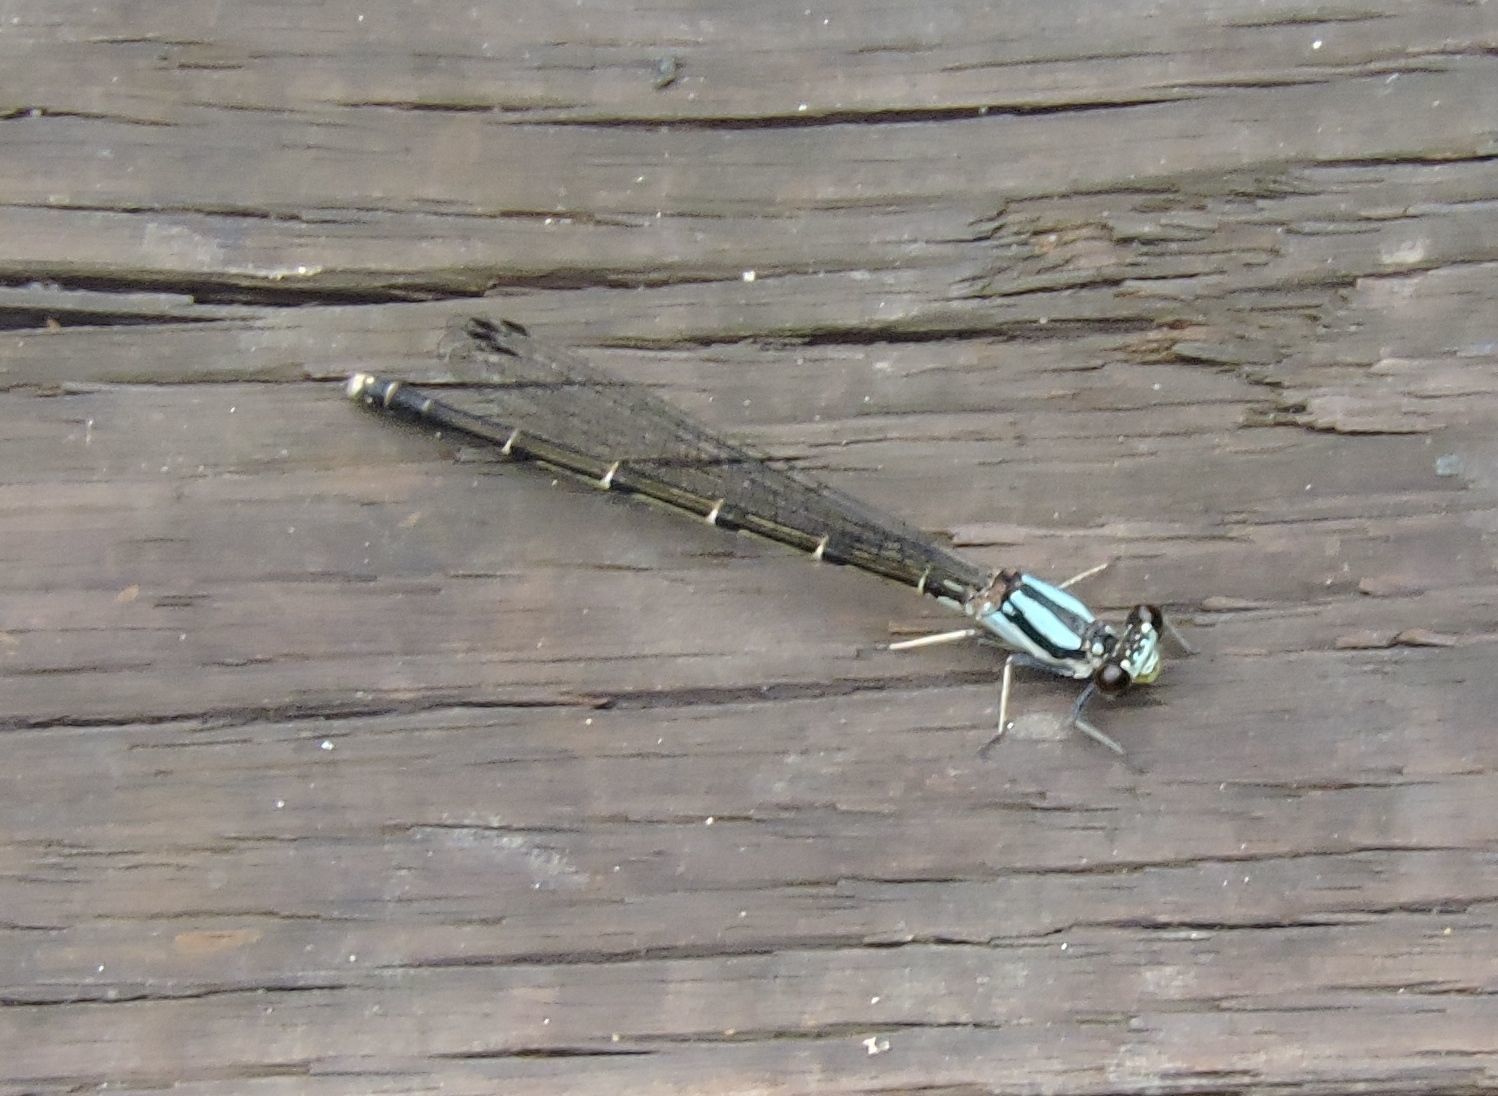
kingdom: Animalia
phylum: Arthropoda
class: Insecta
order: Odonata
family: Coenagrionidae
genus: Argia
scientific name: Argia tibialis
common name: Blue-tipped dancer
